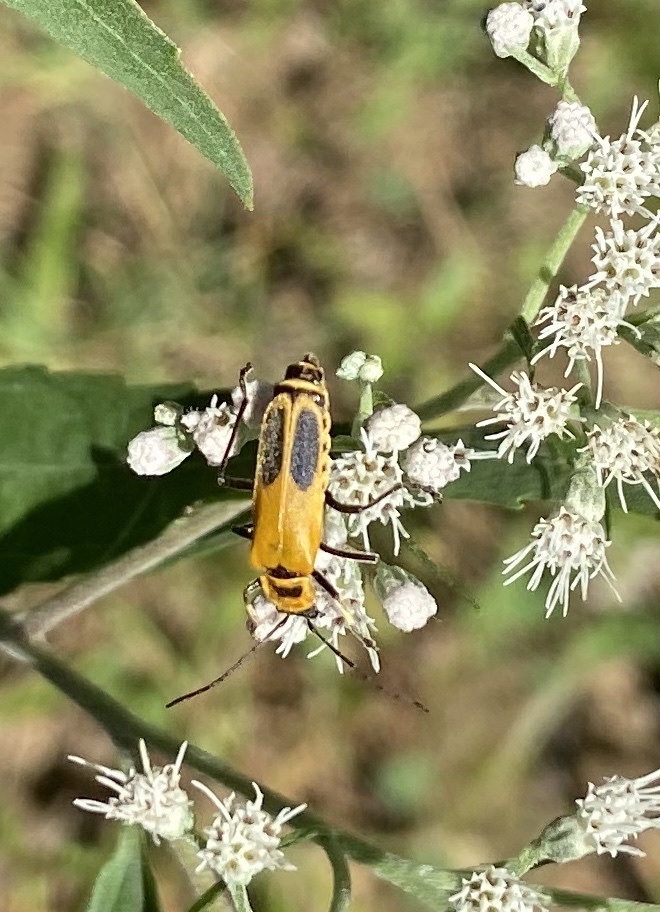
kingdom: Animalia
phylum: Arthropoda
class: Insecta
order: Coleoptera
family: Cantharidae
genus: Chauliognathus
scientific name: Chauliognathus pensylvanicus
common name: Goldenrod soldier beetle
